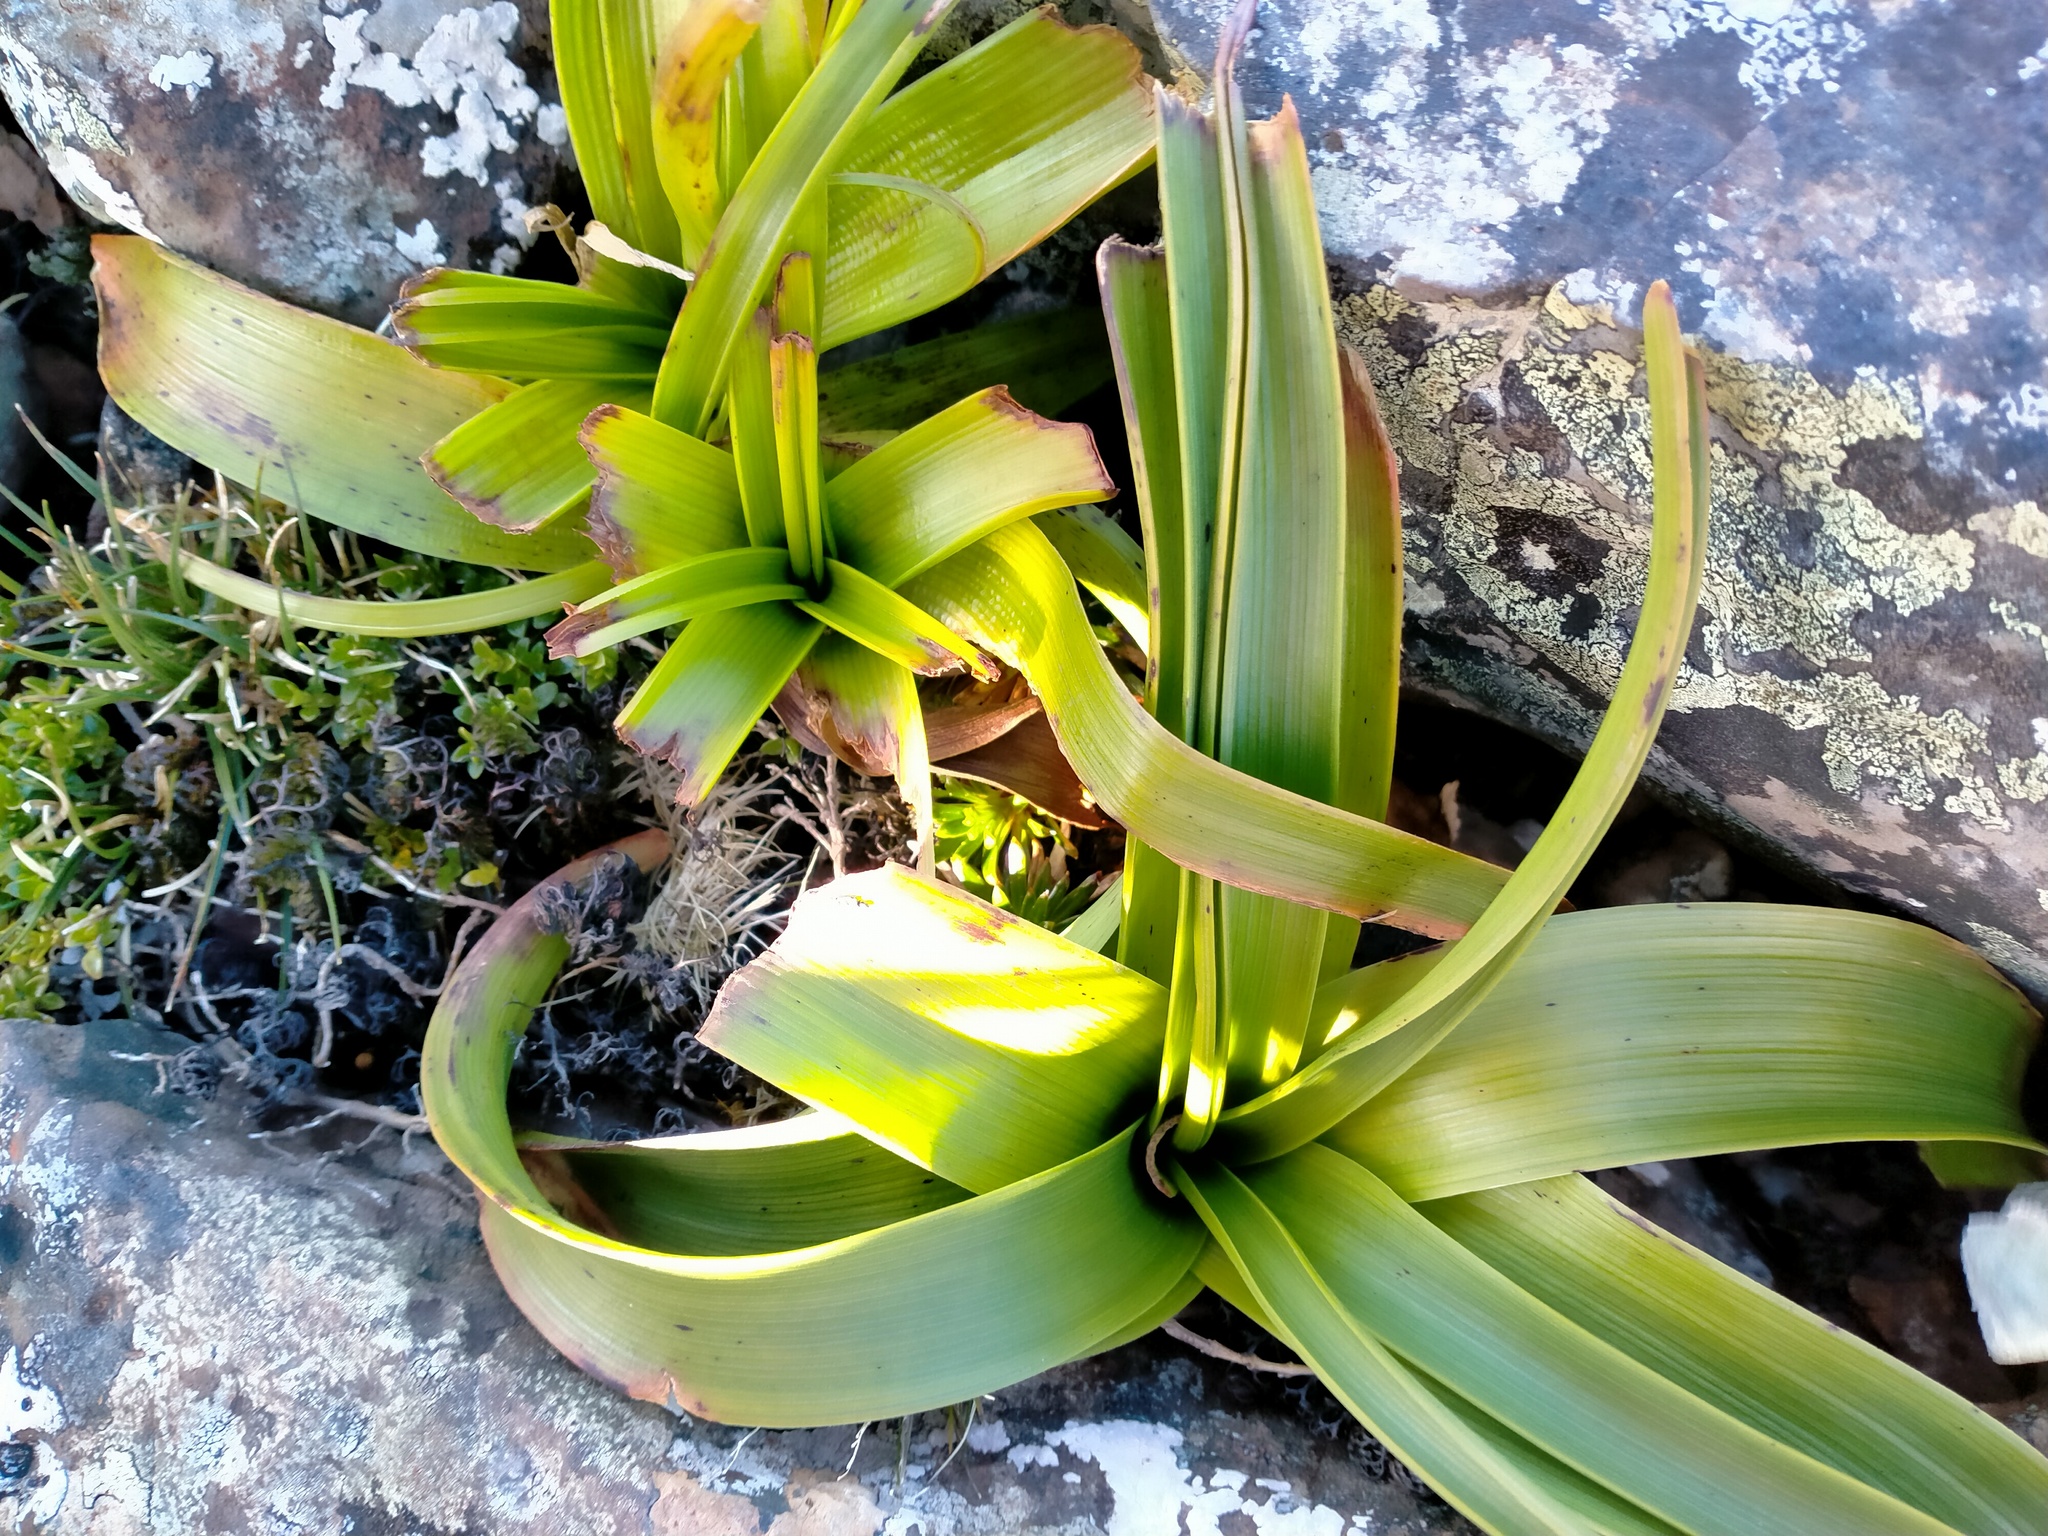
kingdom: Plantae
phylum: Tracheophyta
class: Liliopsida
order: Asparagales
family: Asphodelaceae
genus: Bulbinella
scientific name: Bulbinella rossii
